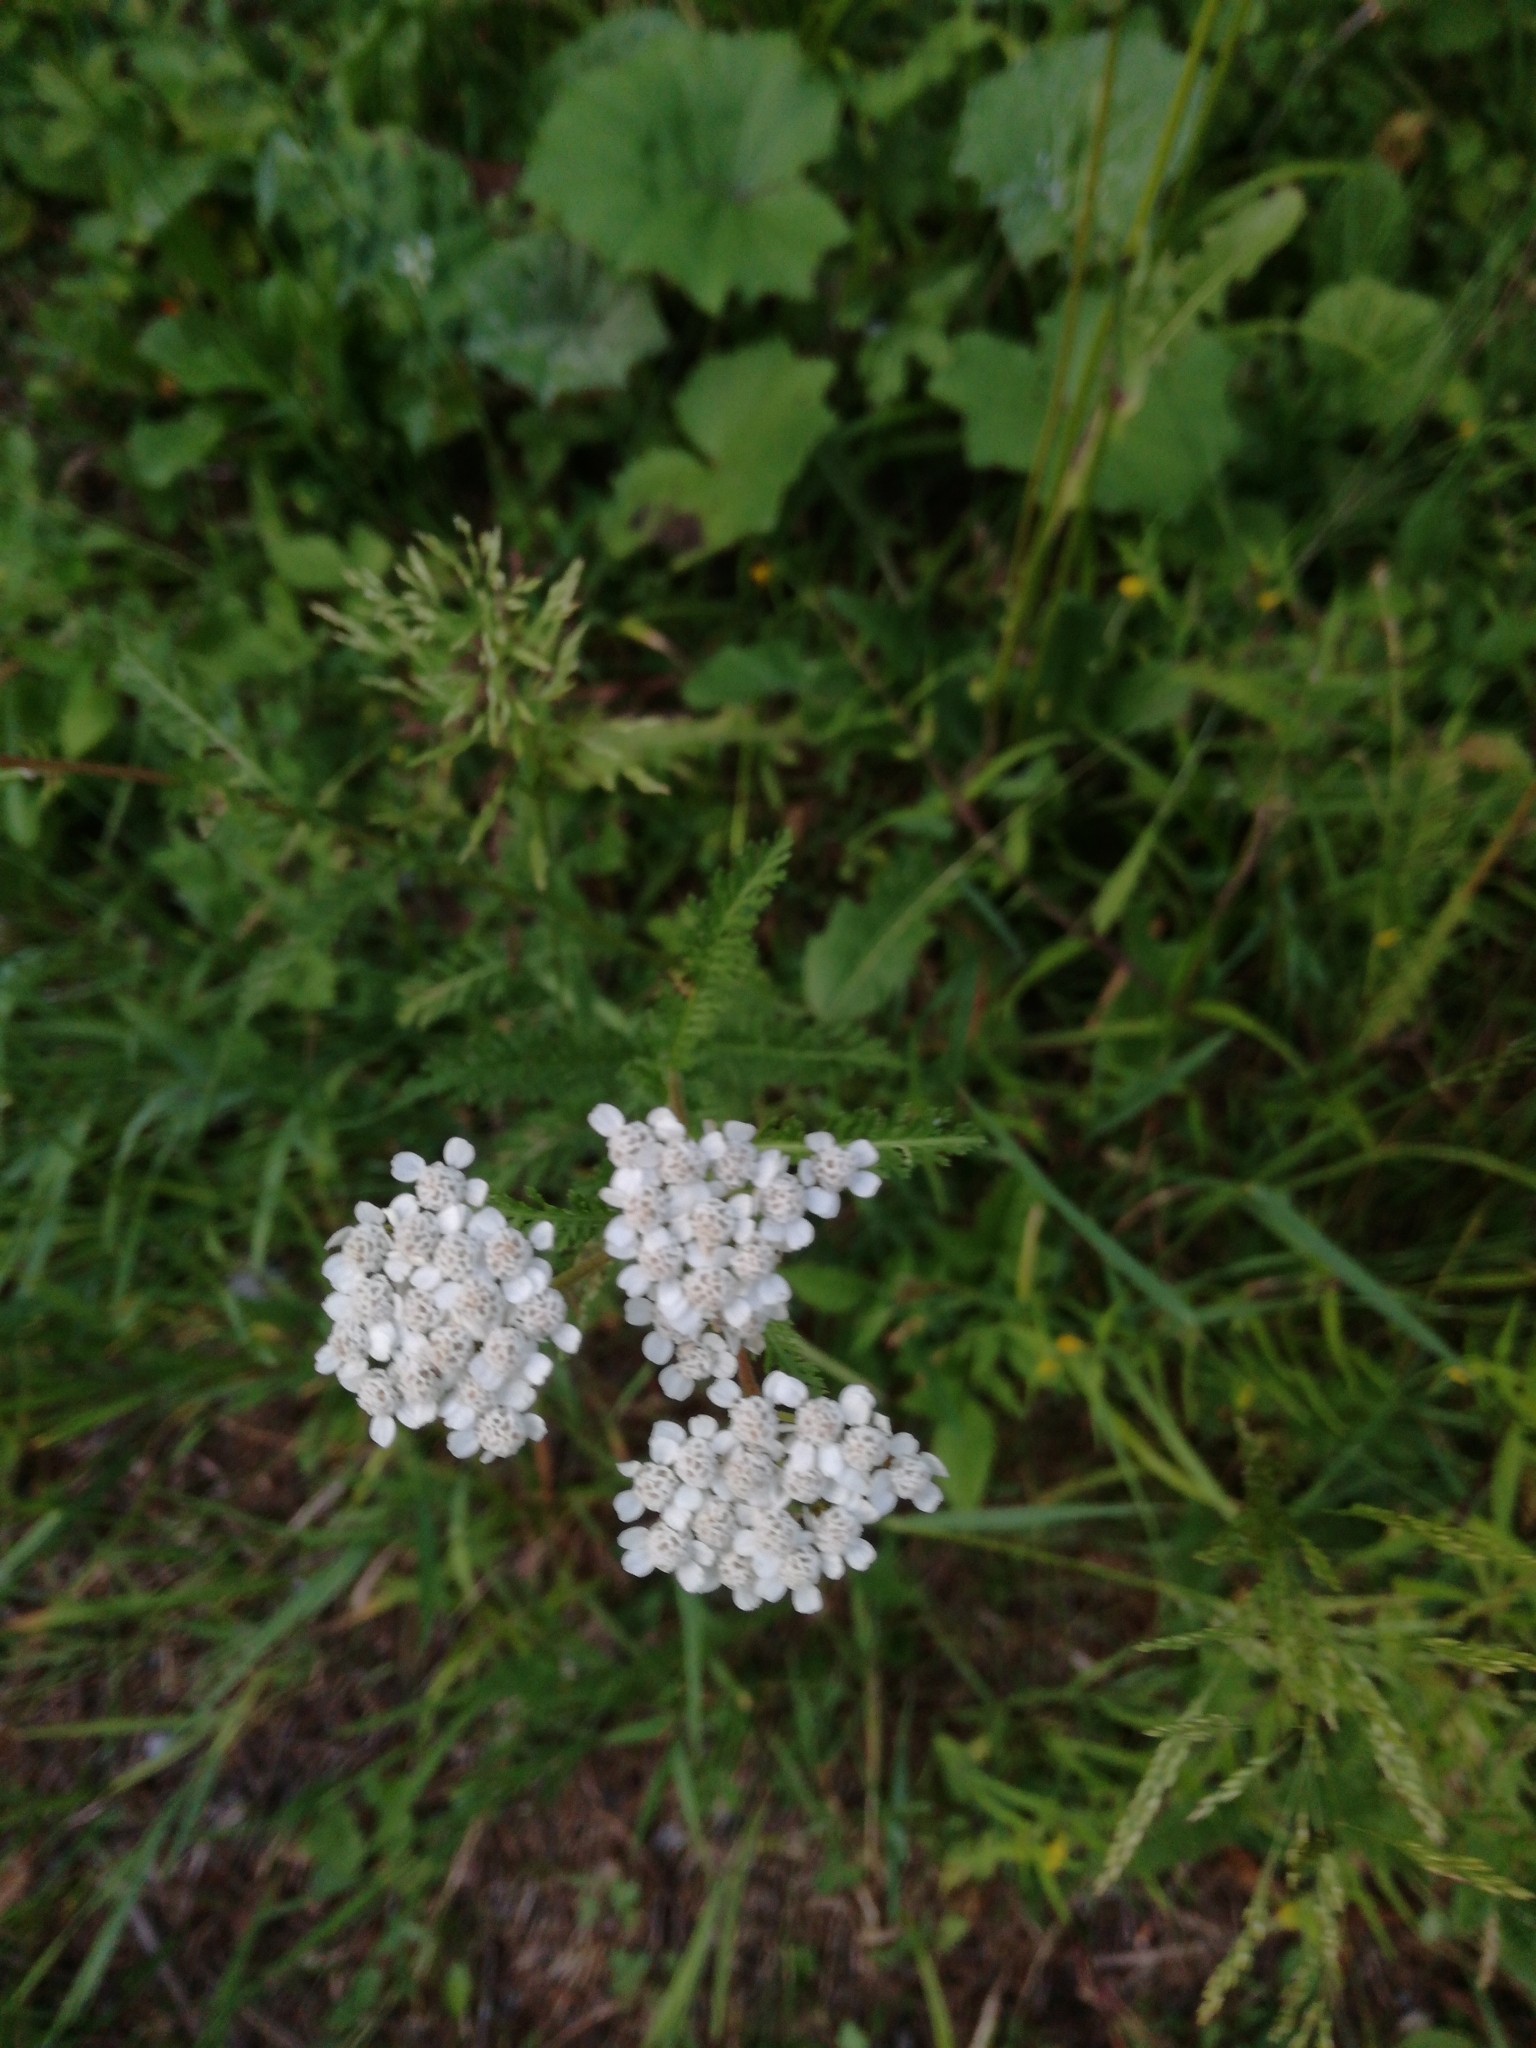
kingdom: Plantae
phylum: Tracheophyta
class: Magnoliopsida
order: Asterales
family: Asteraceae
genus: Achillea
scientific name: Achillea millefolium
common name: Yarrow
